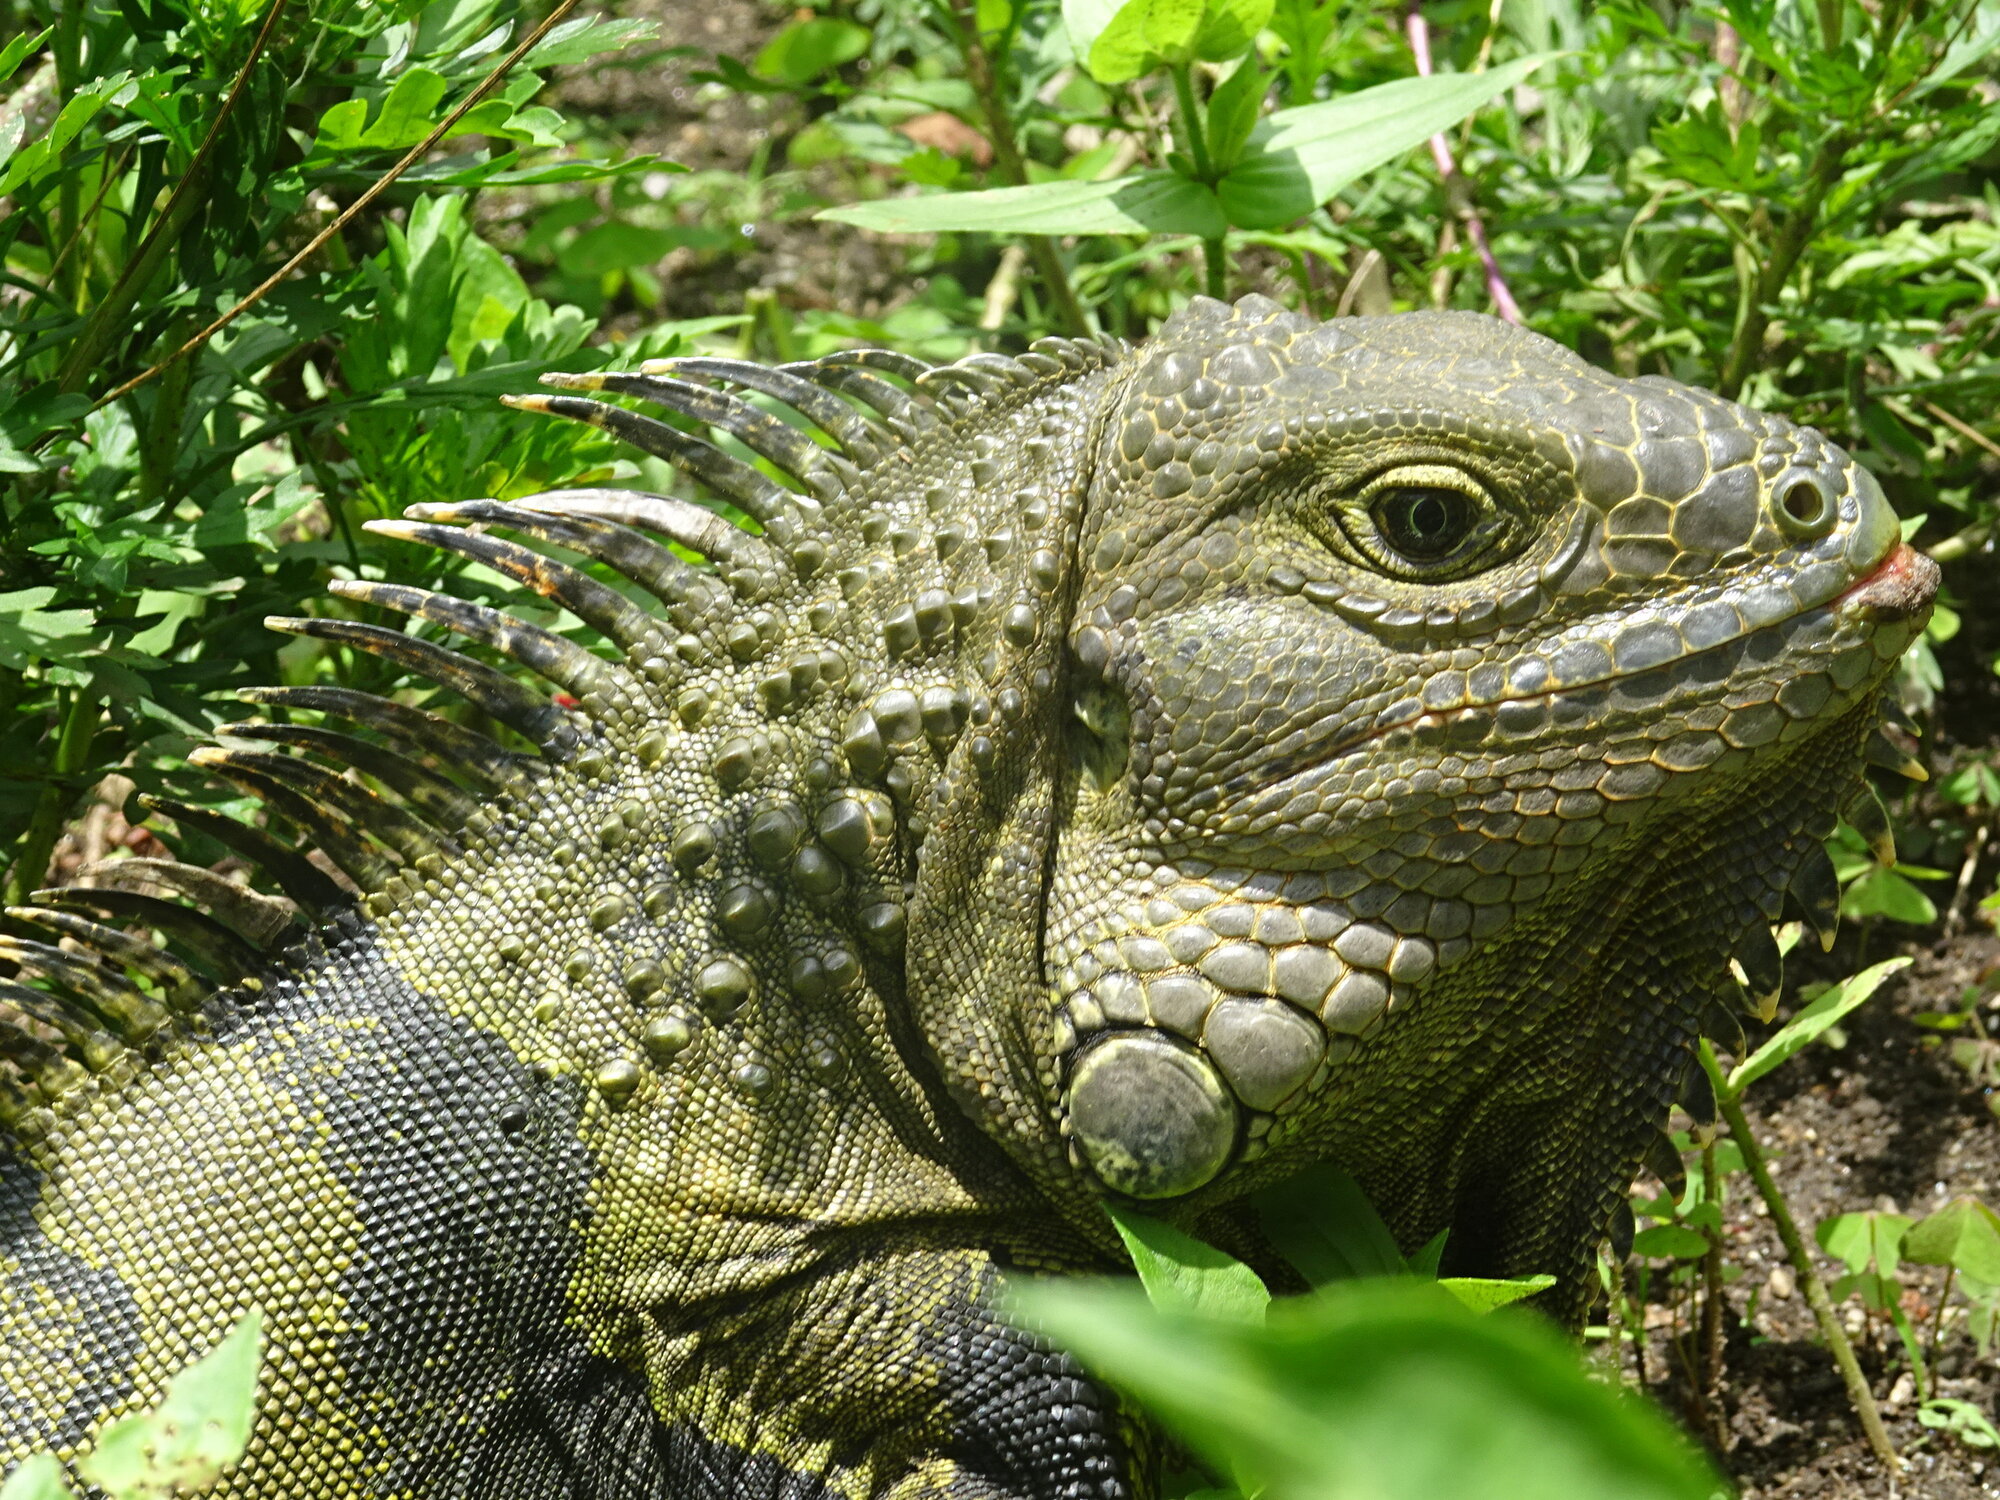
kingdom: Animalia
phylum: Chordata
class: Squamata
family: Iguanidae
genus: Iguana
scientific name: Iguana iguana
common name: Green iguana
